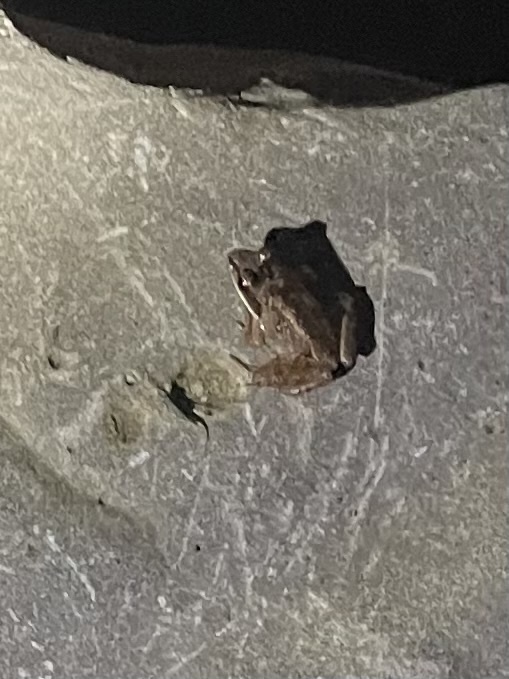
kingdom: Animalia
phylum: Chordata
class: Amphibia
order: Anura
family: Ranidae
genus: Lithobates
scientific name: Lithobates sylvaticus
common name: Wood frog
